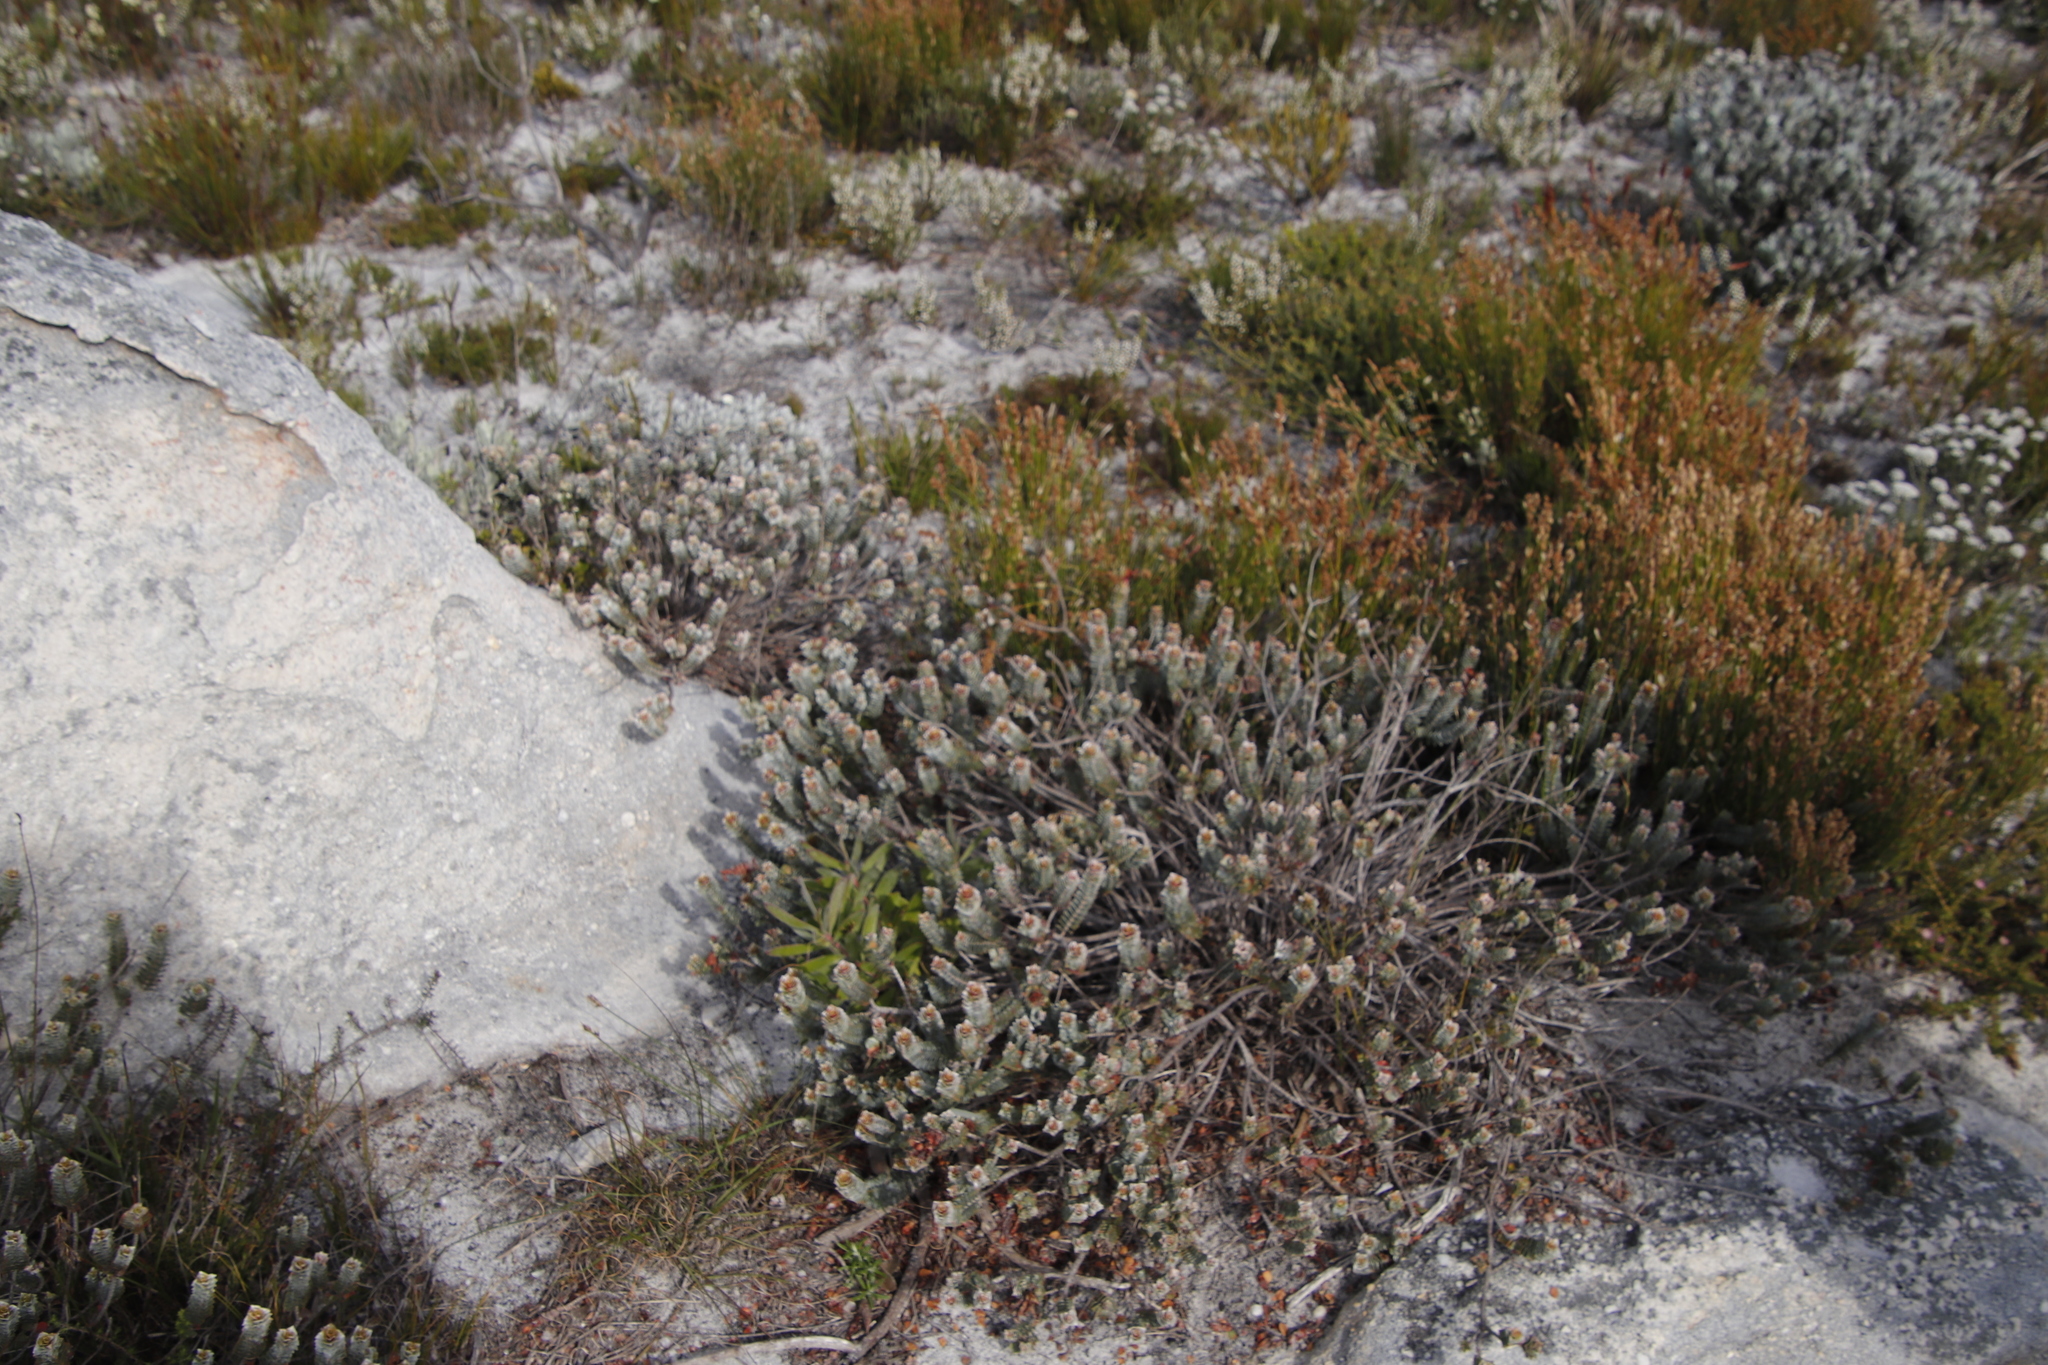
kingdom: Plantae
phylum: Tracheophyta
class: Magnoliopsida
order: Myrtales
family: Penaeaceae
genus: Saltera
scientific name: Saltera sarcocolla
